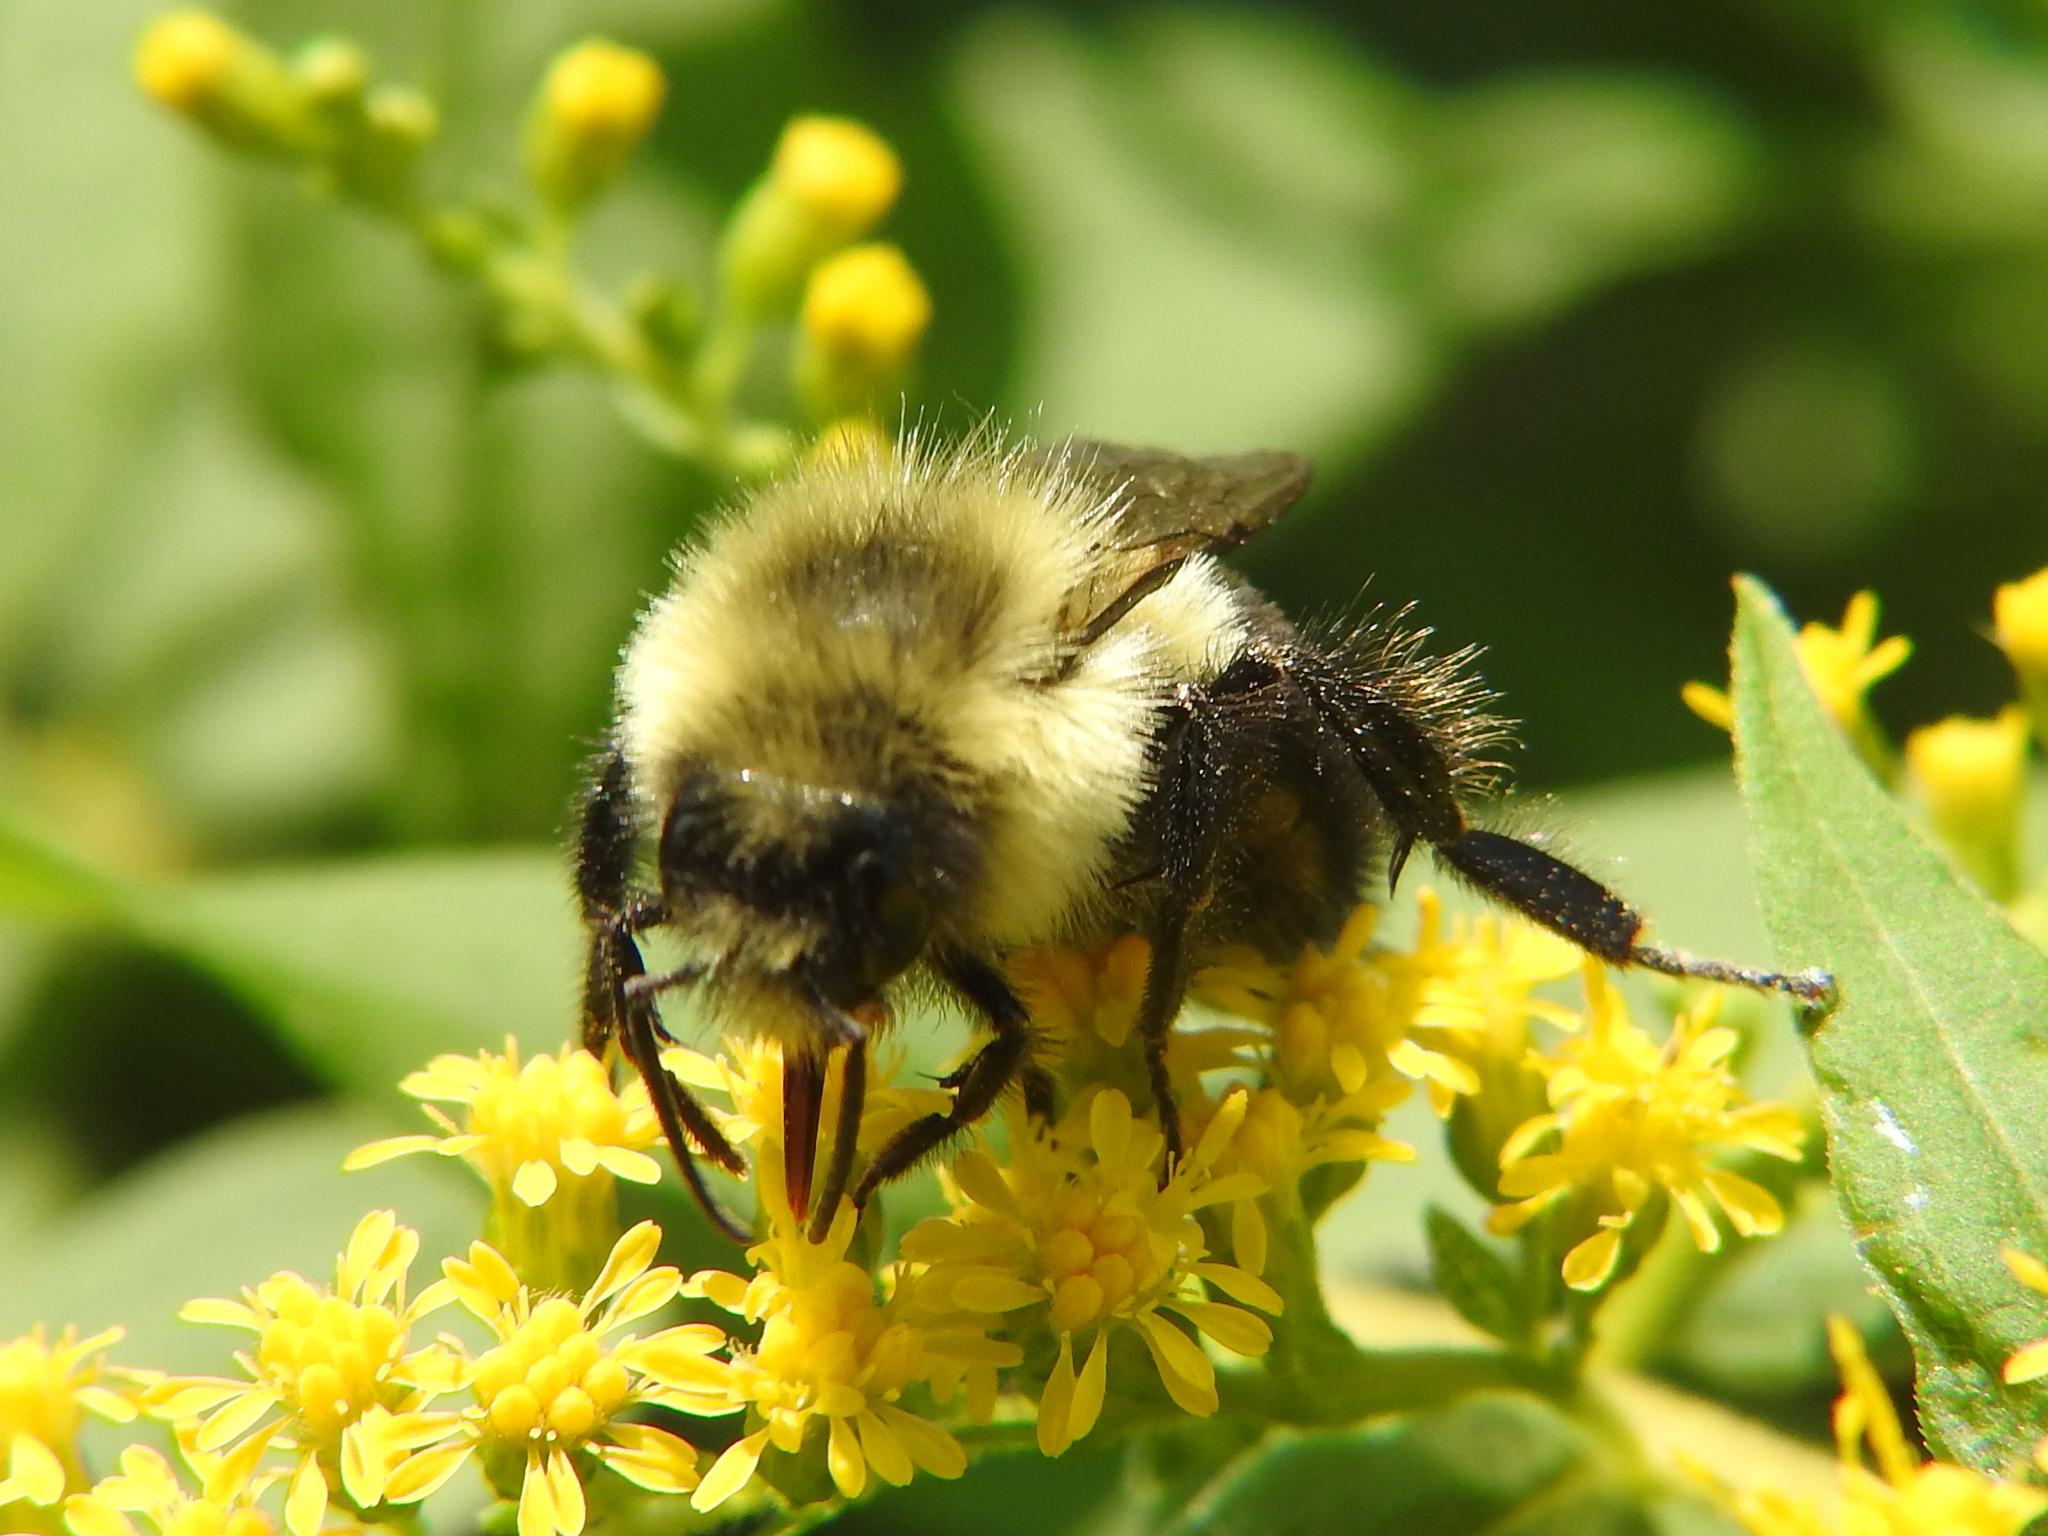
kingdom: Animalia
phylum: Arthropoda
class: Insecta
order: Hymenoptera
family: Apidae
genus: Bombus
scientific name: Bombus impatiens
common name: Common eastern bumble bee
